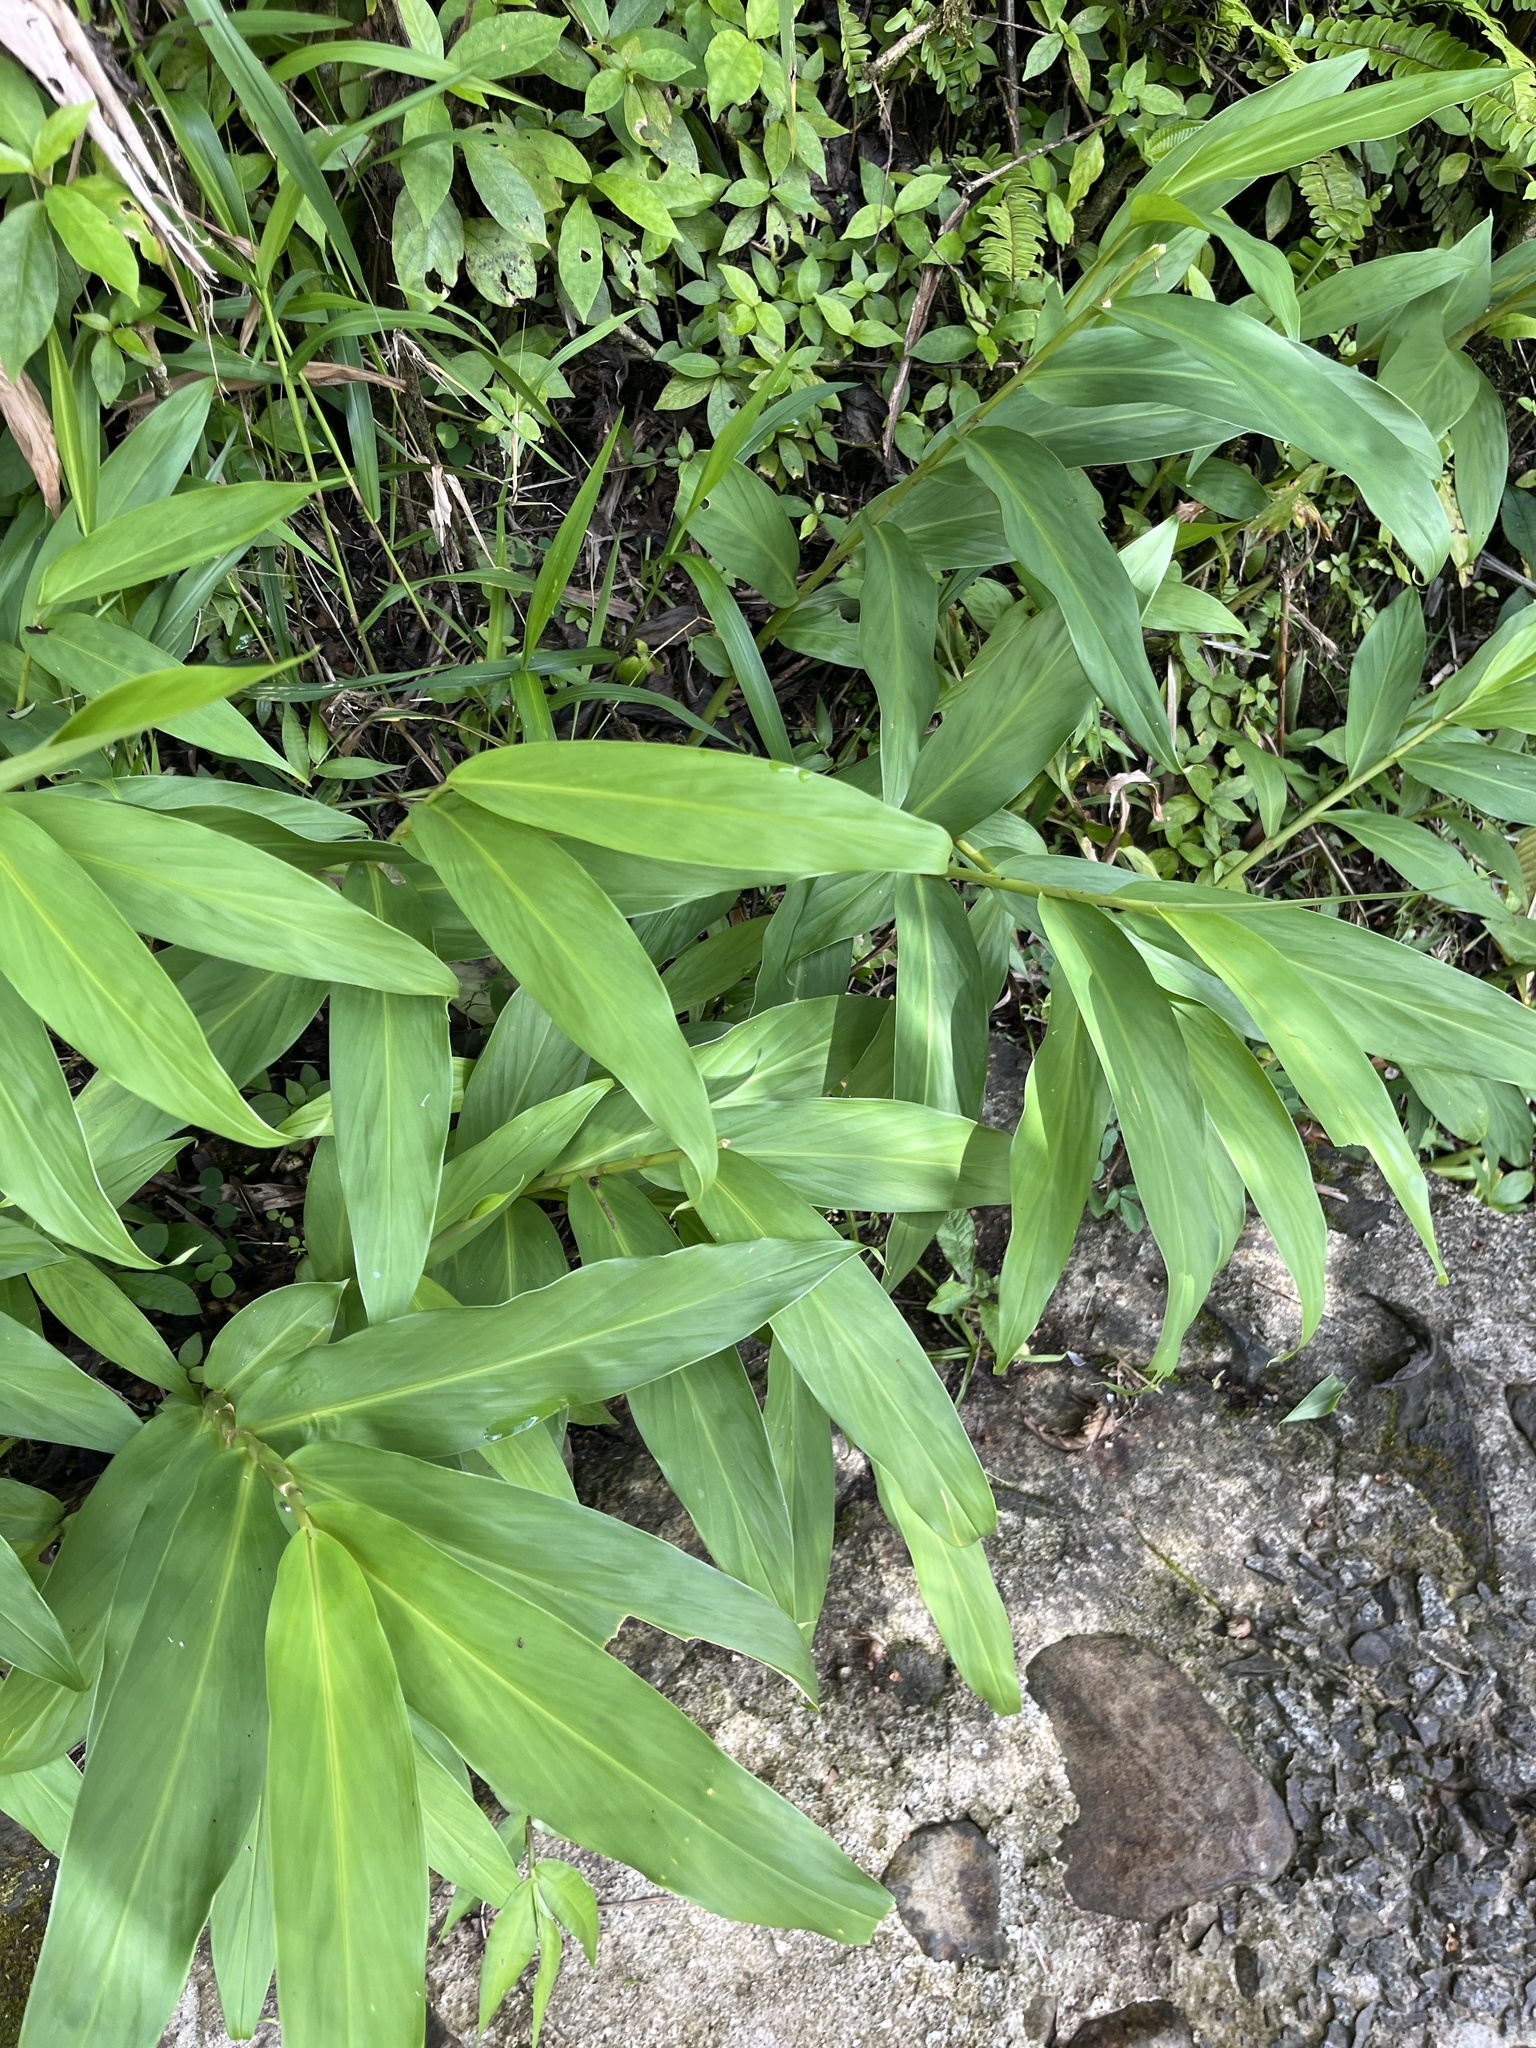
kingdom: Plantae
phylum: Tracheophyta
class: Liliopsida
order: Zingiberales
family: Zingiberaceae
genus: Hedychium
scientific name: Hedychium coronarium
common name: White garland-lily
